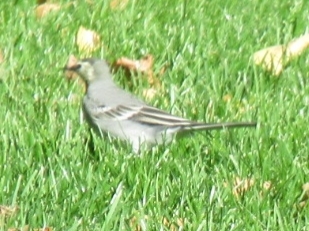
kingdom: Animalia
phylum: Chordata
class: Aves
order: Passeriformes
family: Motacillidae
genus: Motacilla
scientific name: Motacilla alba
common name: White wagtail
